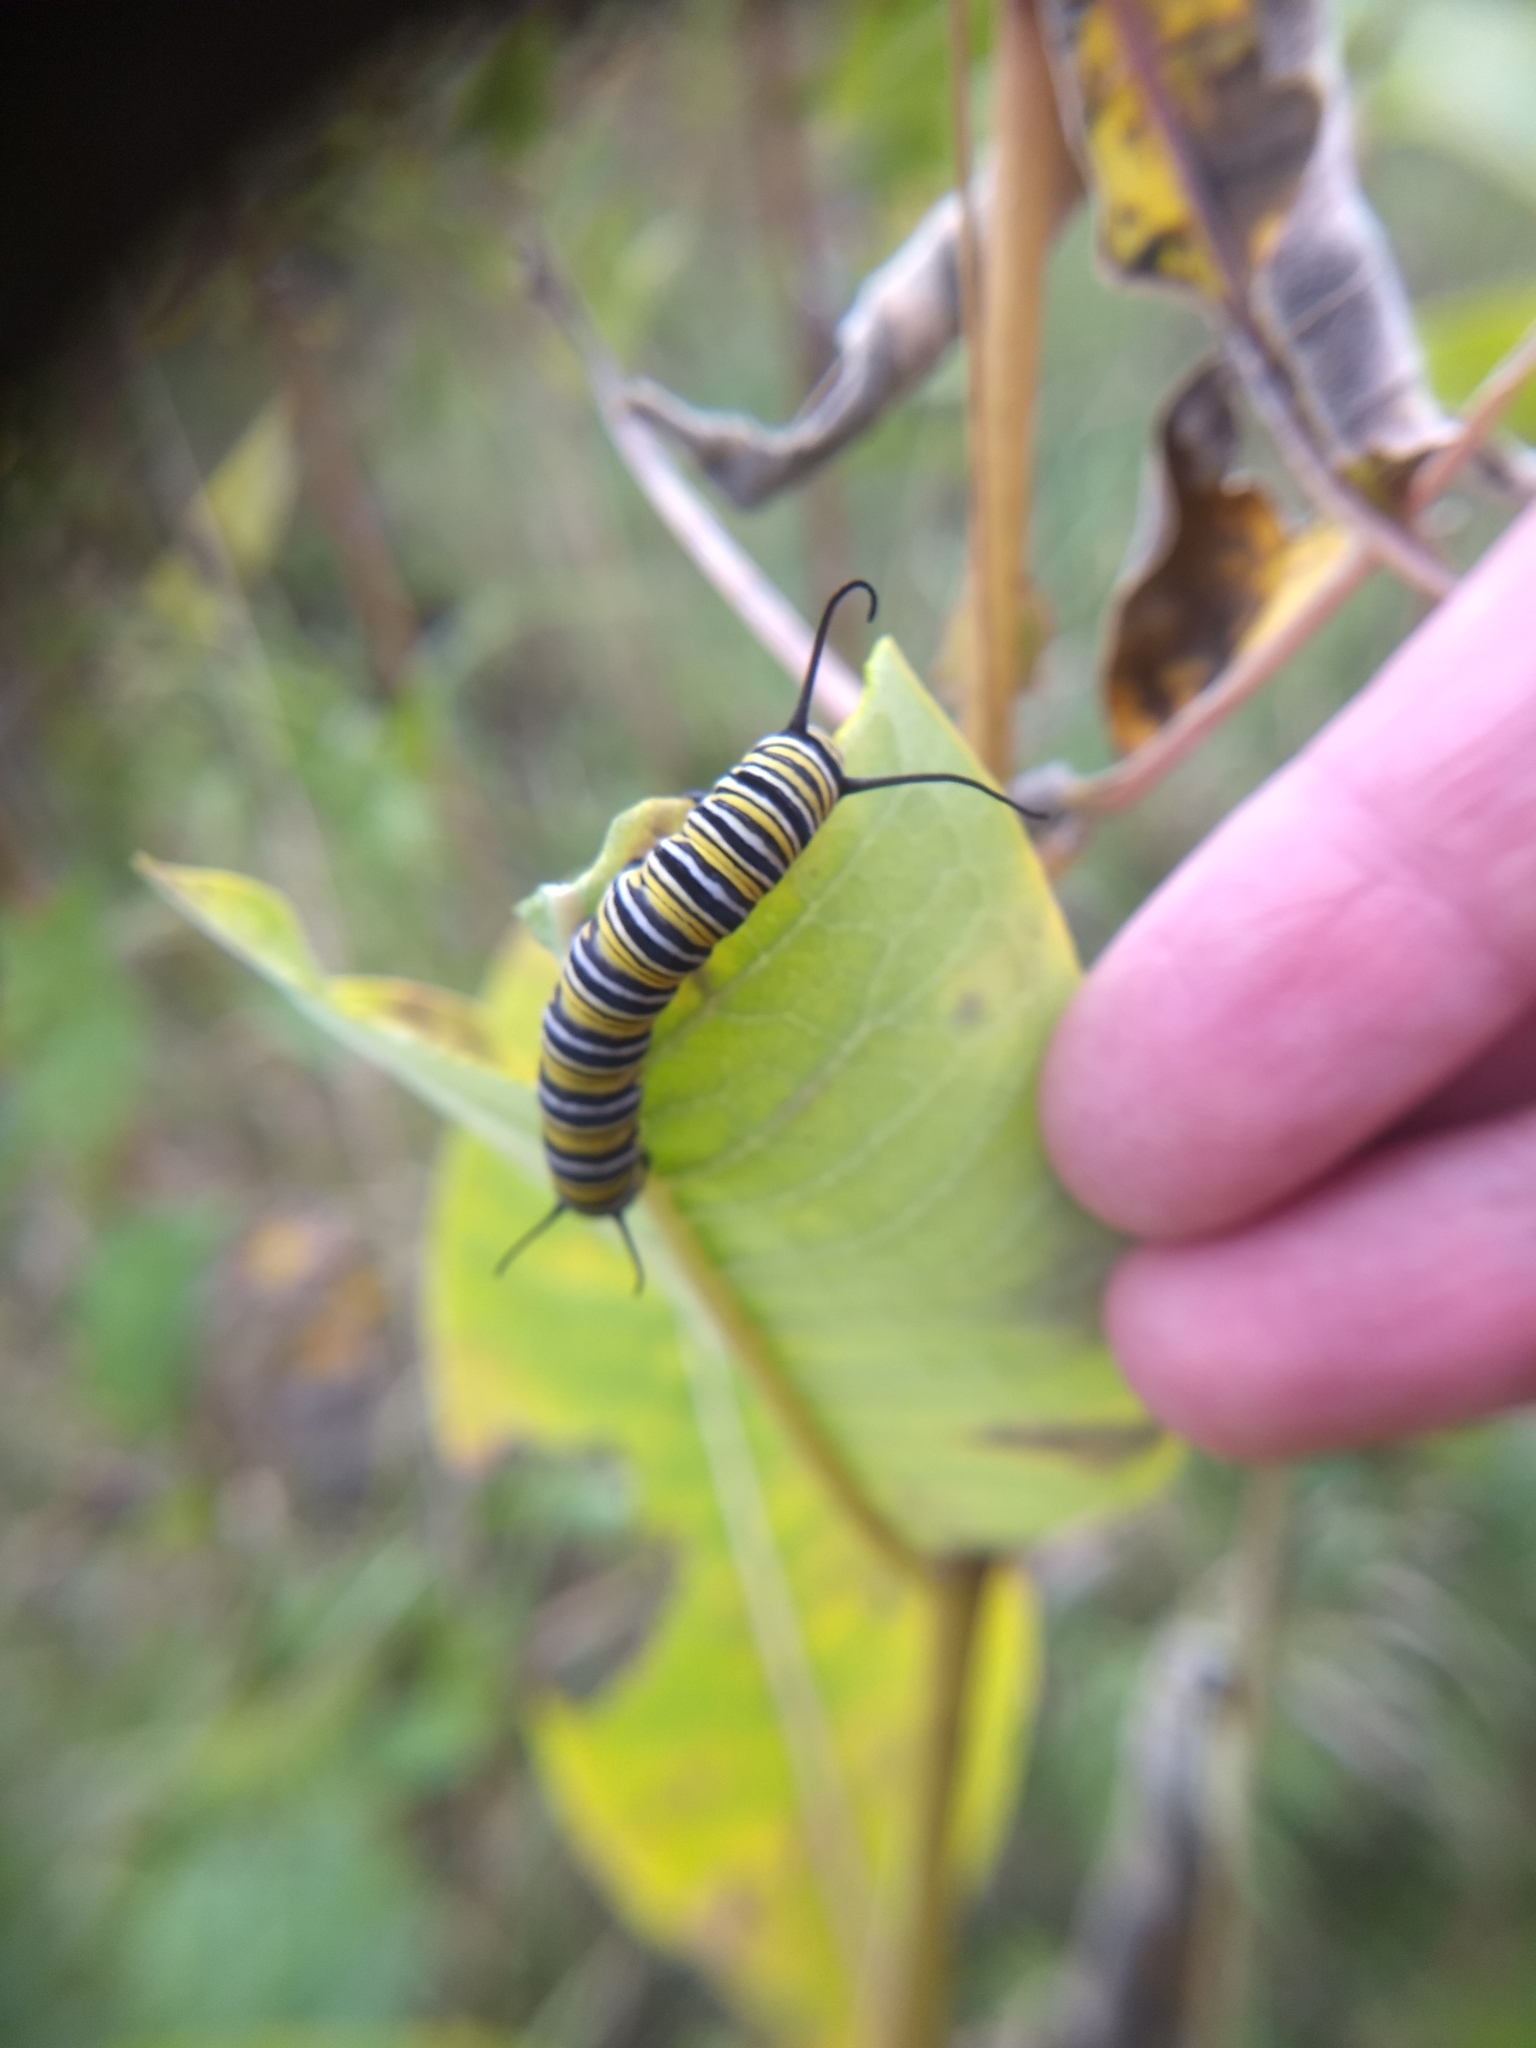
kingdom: Animalia
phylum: Arthropoda
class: Insecta
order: Lepidoptera
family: Nymphalidae
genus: Danaus
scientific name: Danaus plexippus
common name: Monarch
